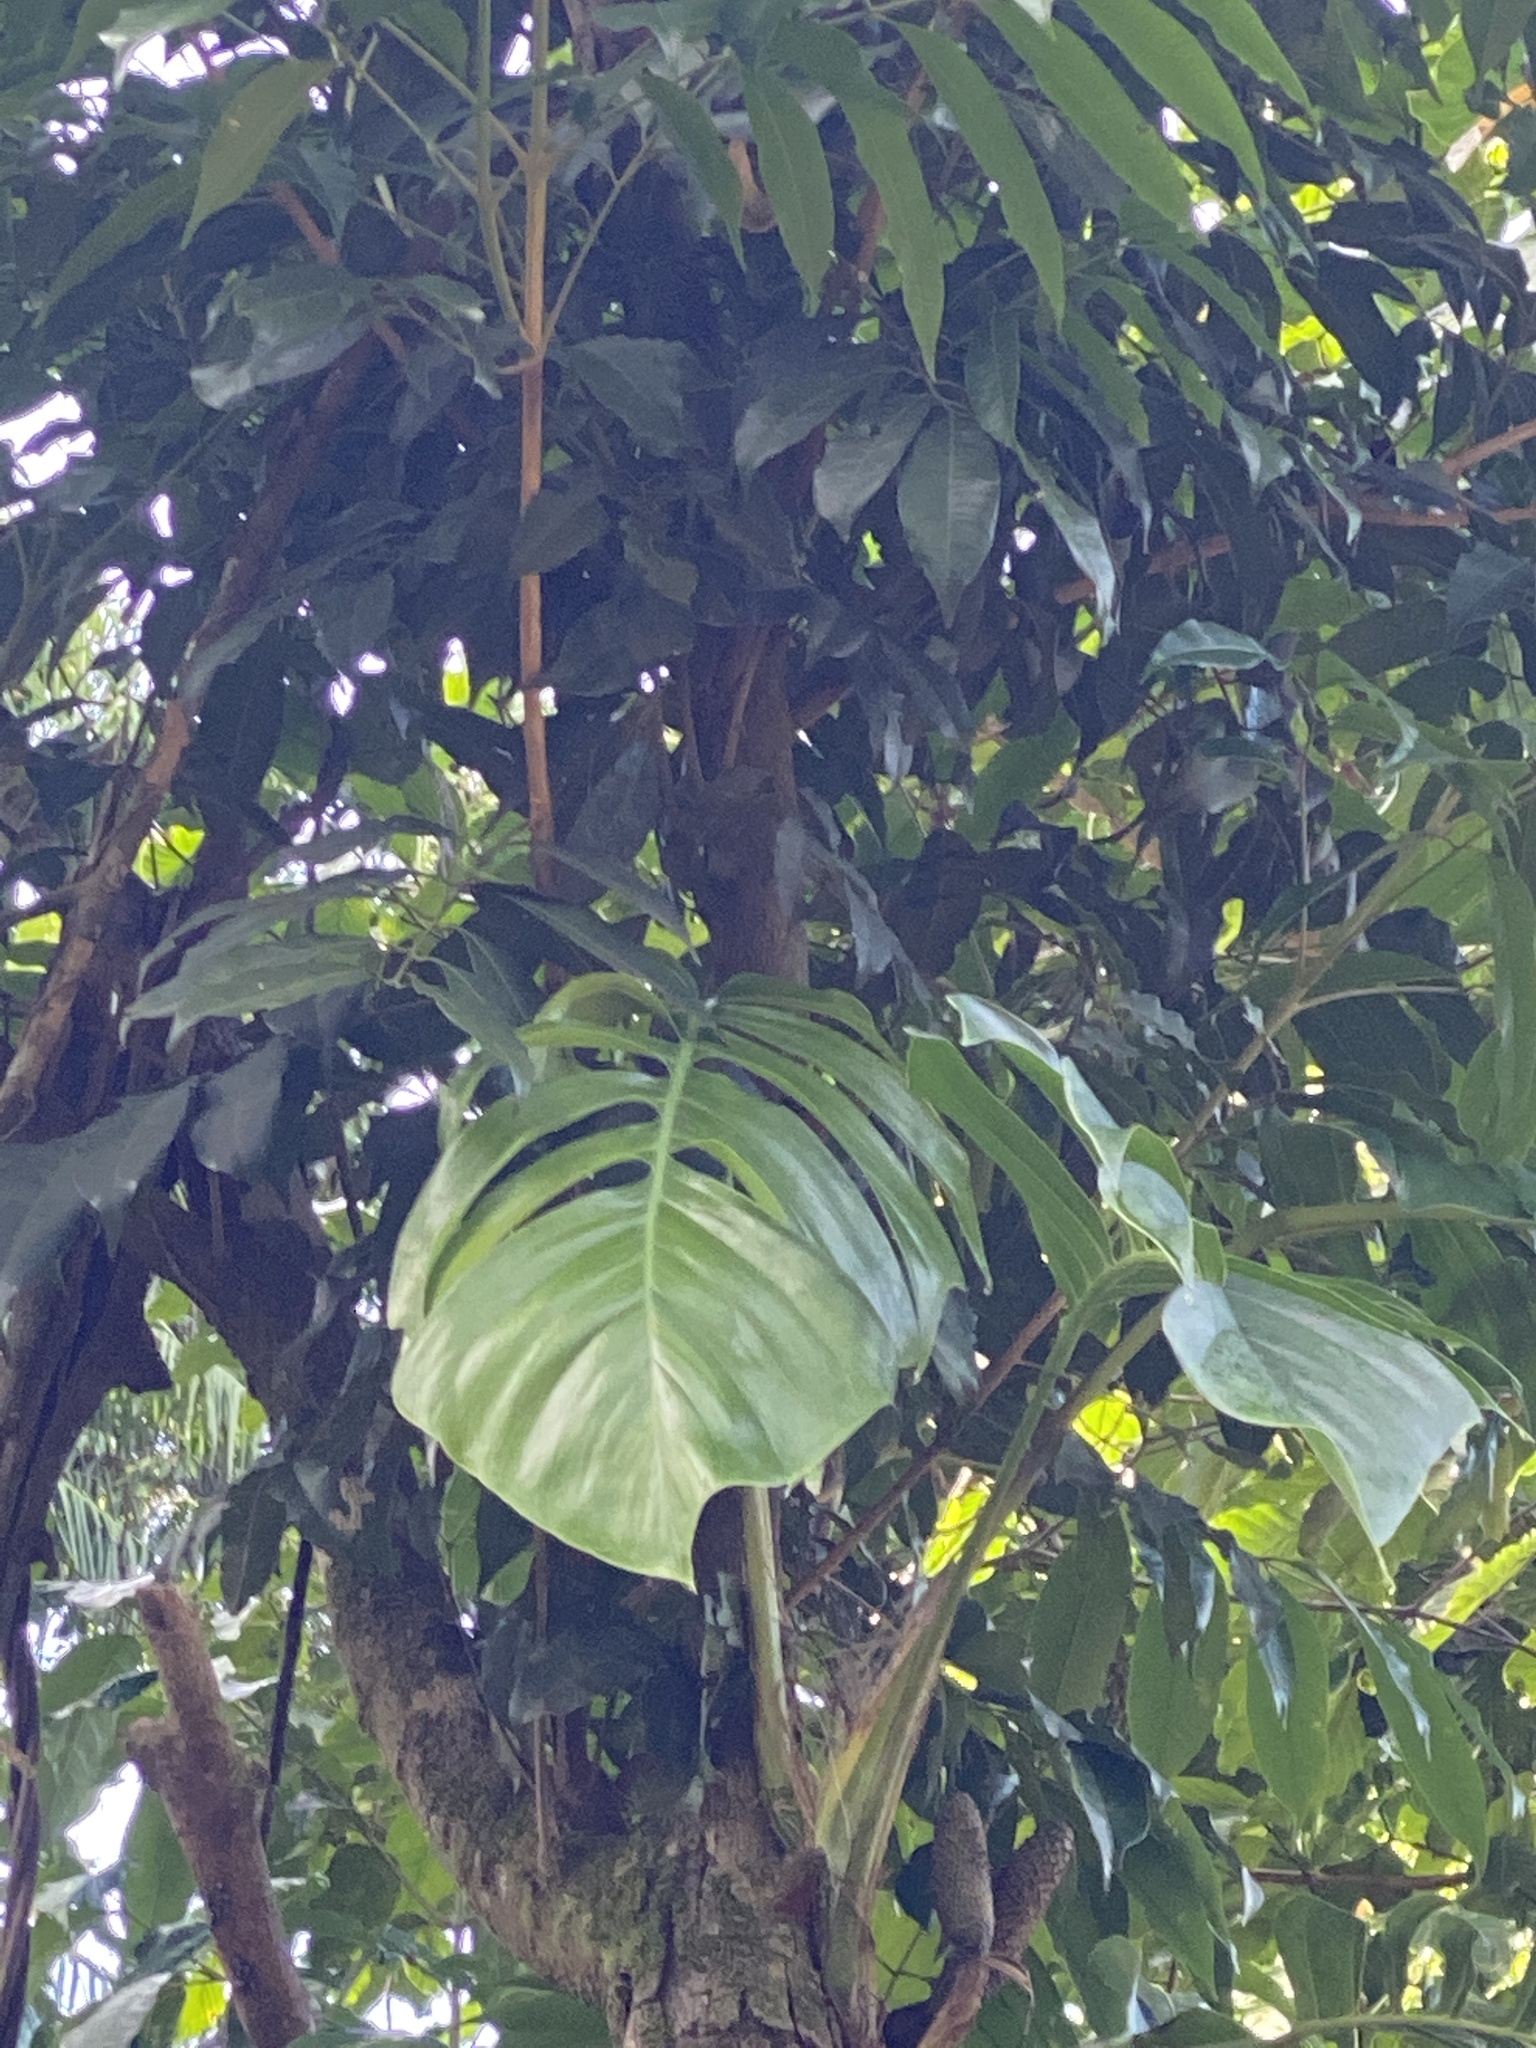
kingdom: Plantae
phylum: Tracheophyta
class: Liliopsida
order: Alismatales
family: Araceae
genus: Epipremnum
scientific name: Epipremnum pinnatum
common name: Centipede tongavine
